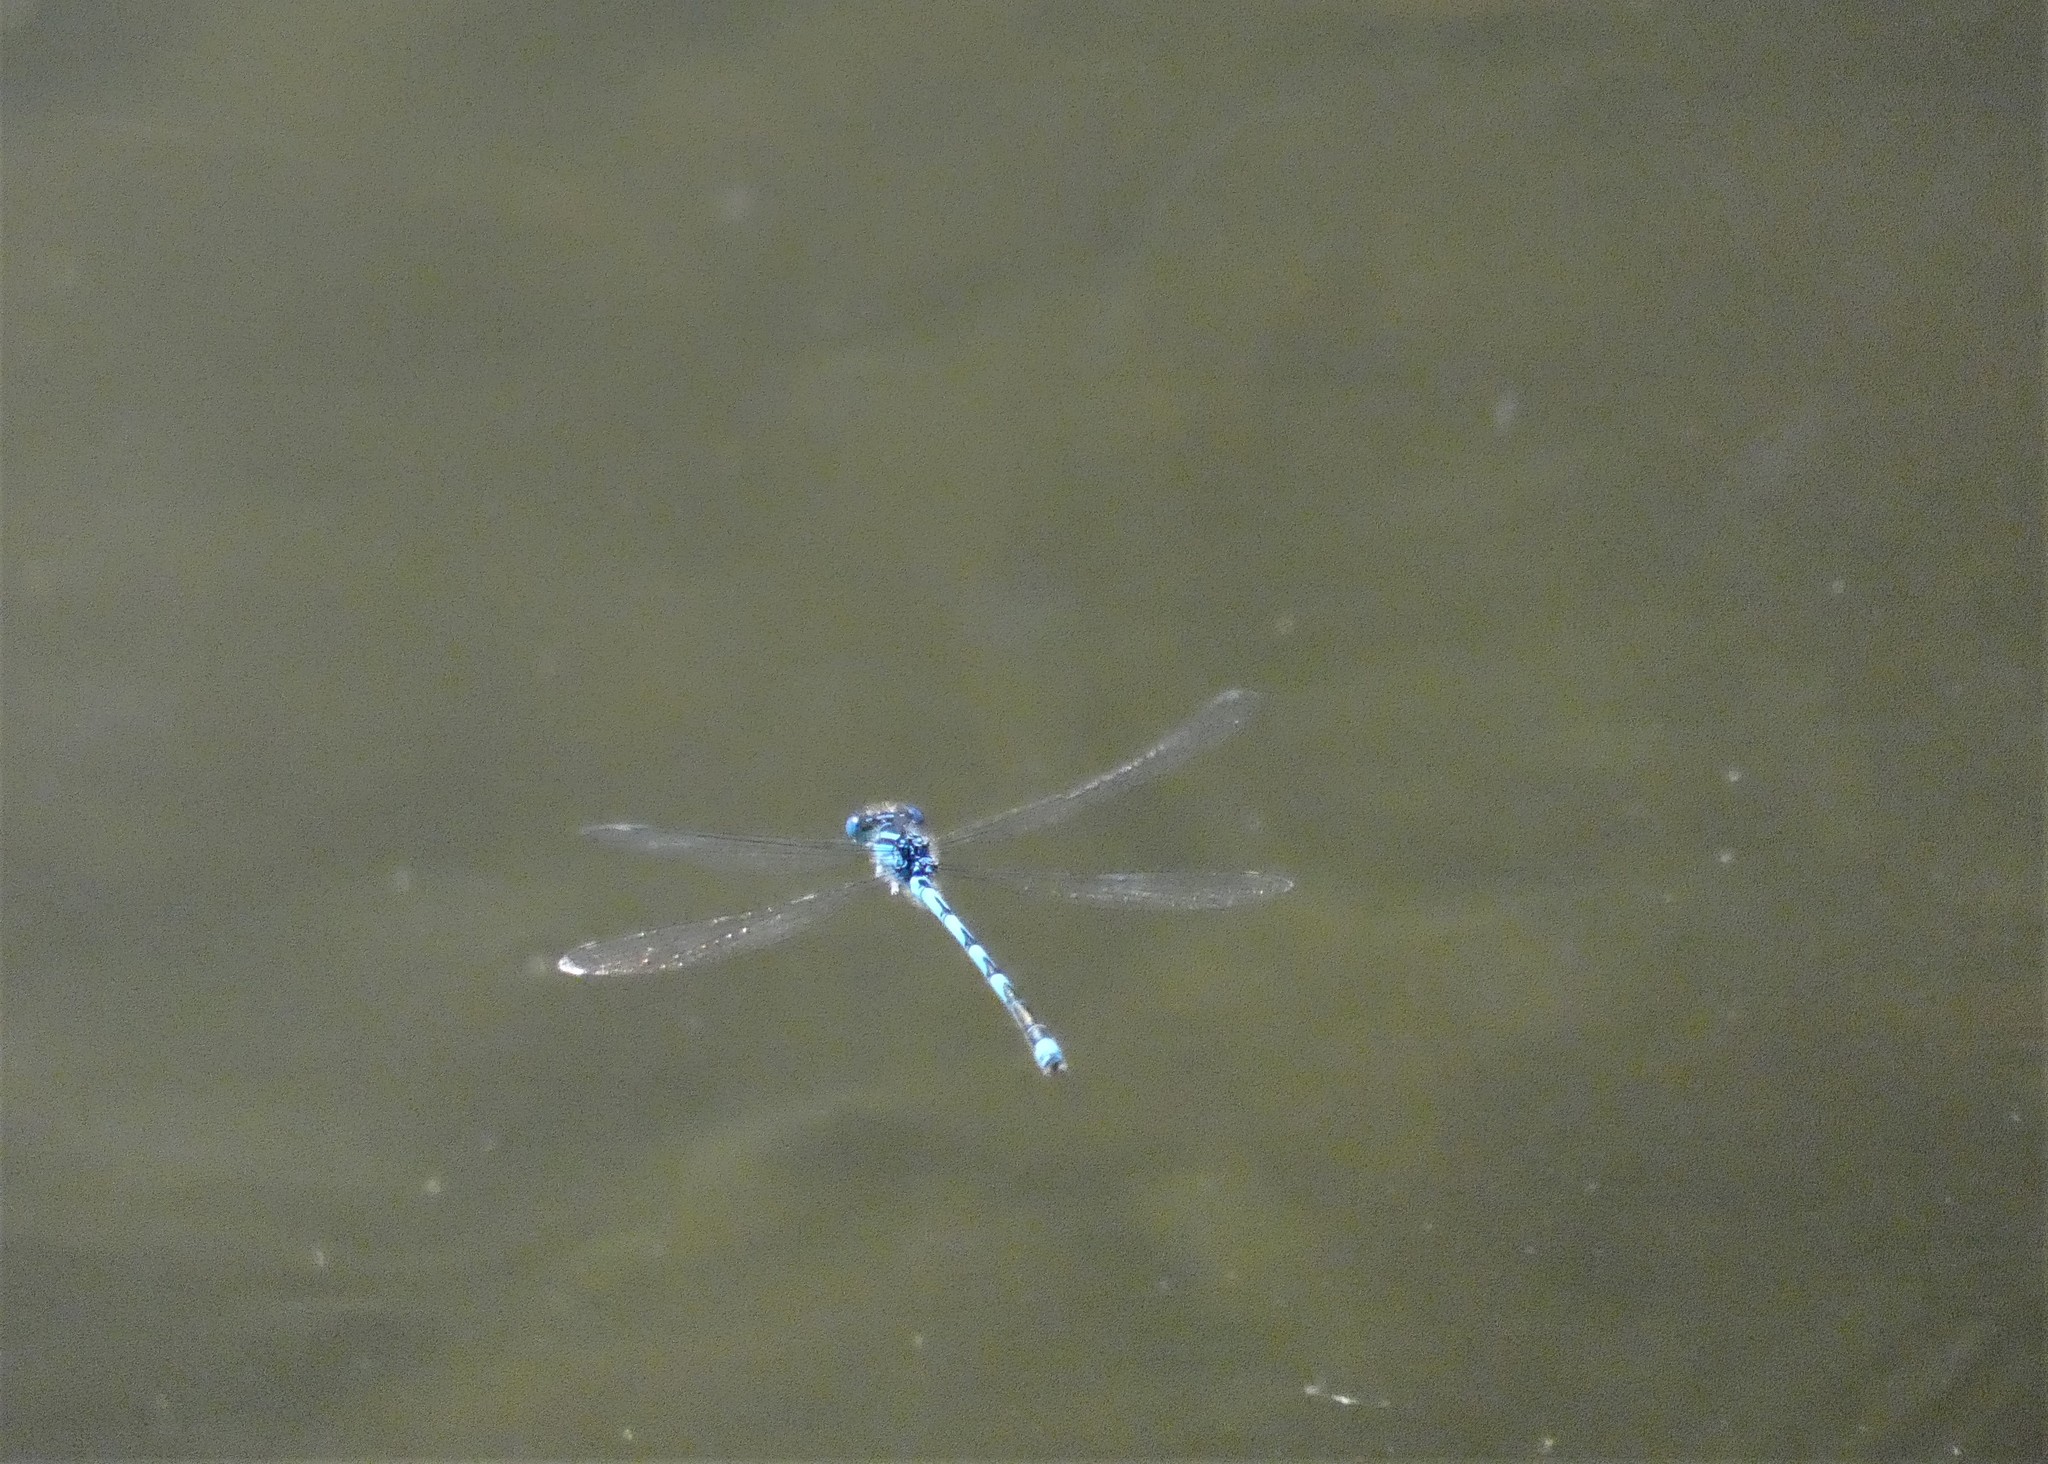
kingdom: Animalia
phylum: Arthropoda
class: Insecta
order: Odonata
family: Coenagrionidae
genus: Erythromma
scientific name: Erythromma lindenii
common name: Blue-eye
